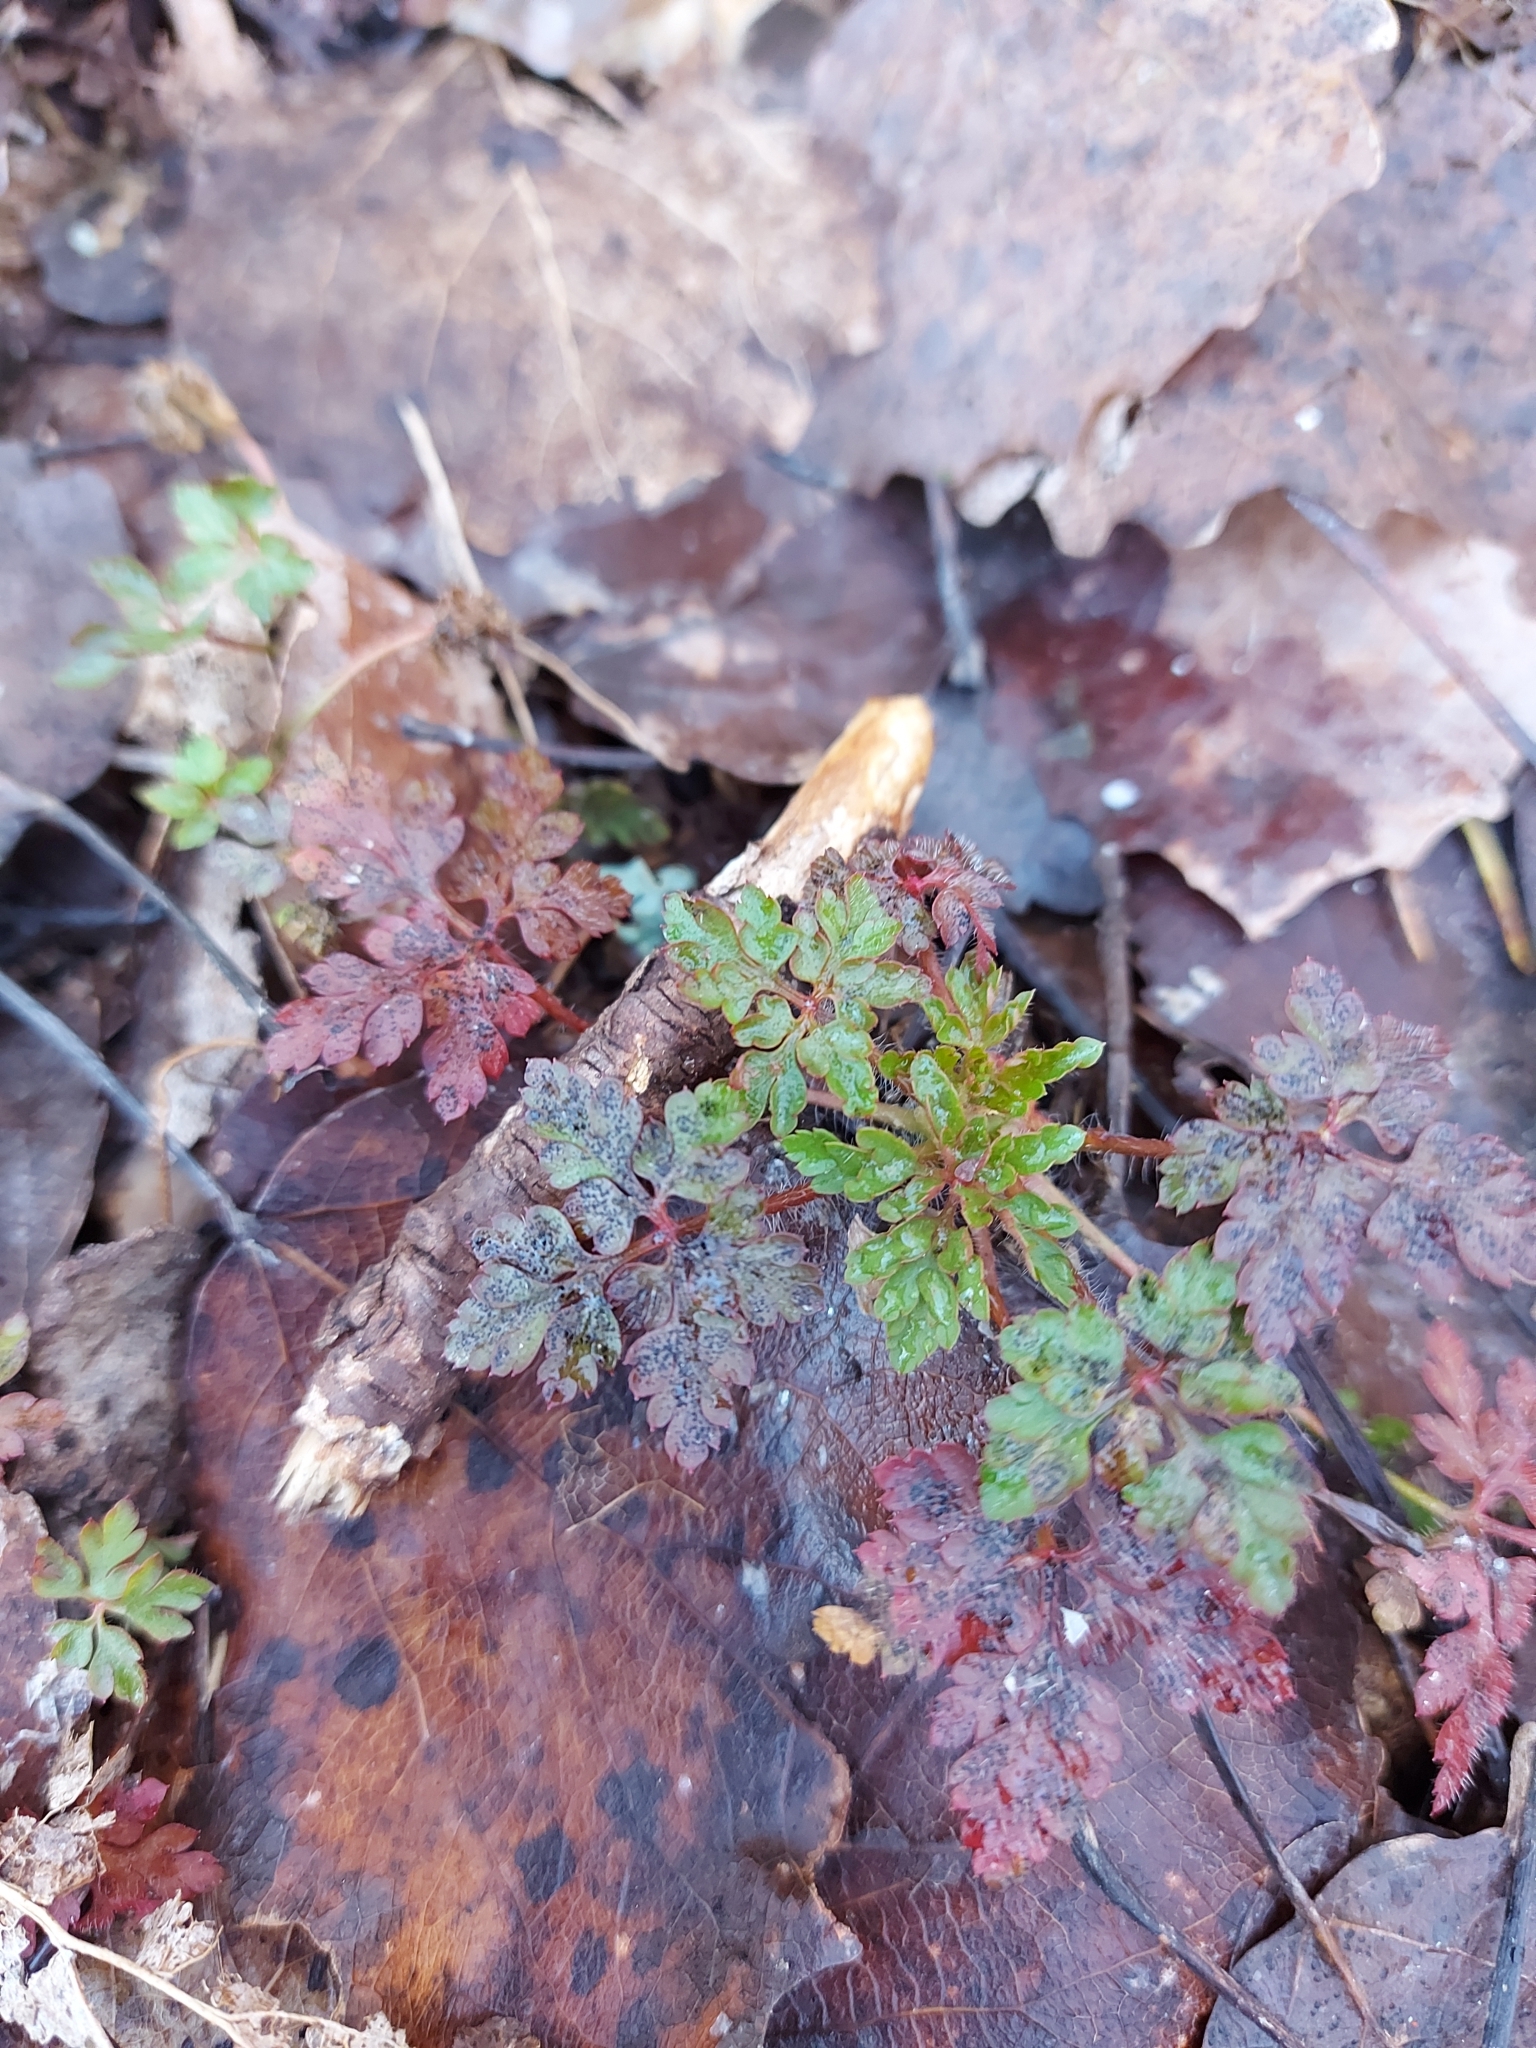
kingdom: Plantae
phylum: Tracheophyta
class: Magnoliopsida
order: Geraniales
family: Geraniaceae
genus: Geranium
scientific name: Geranium robertianum
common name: Herb-robert
